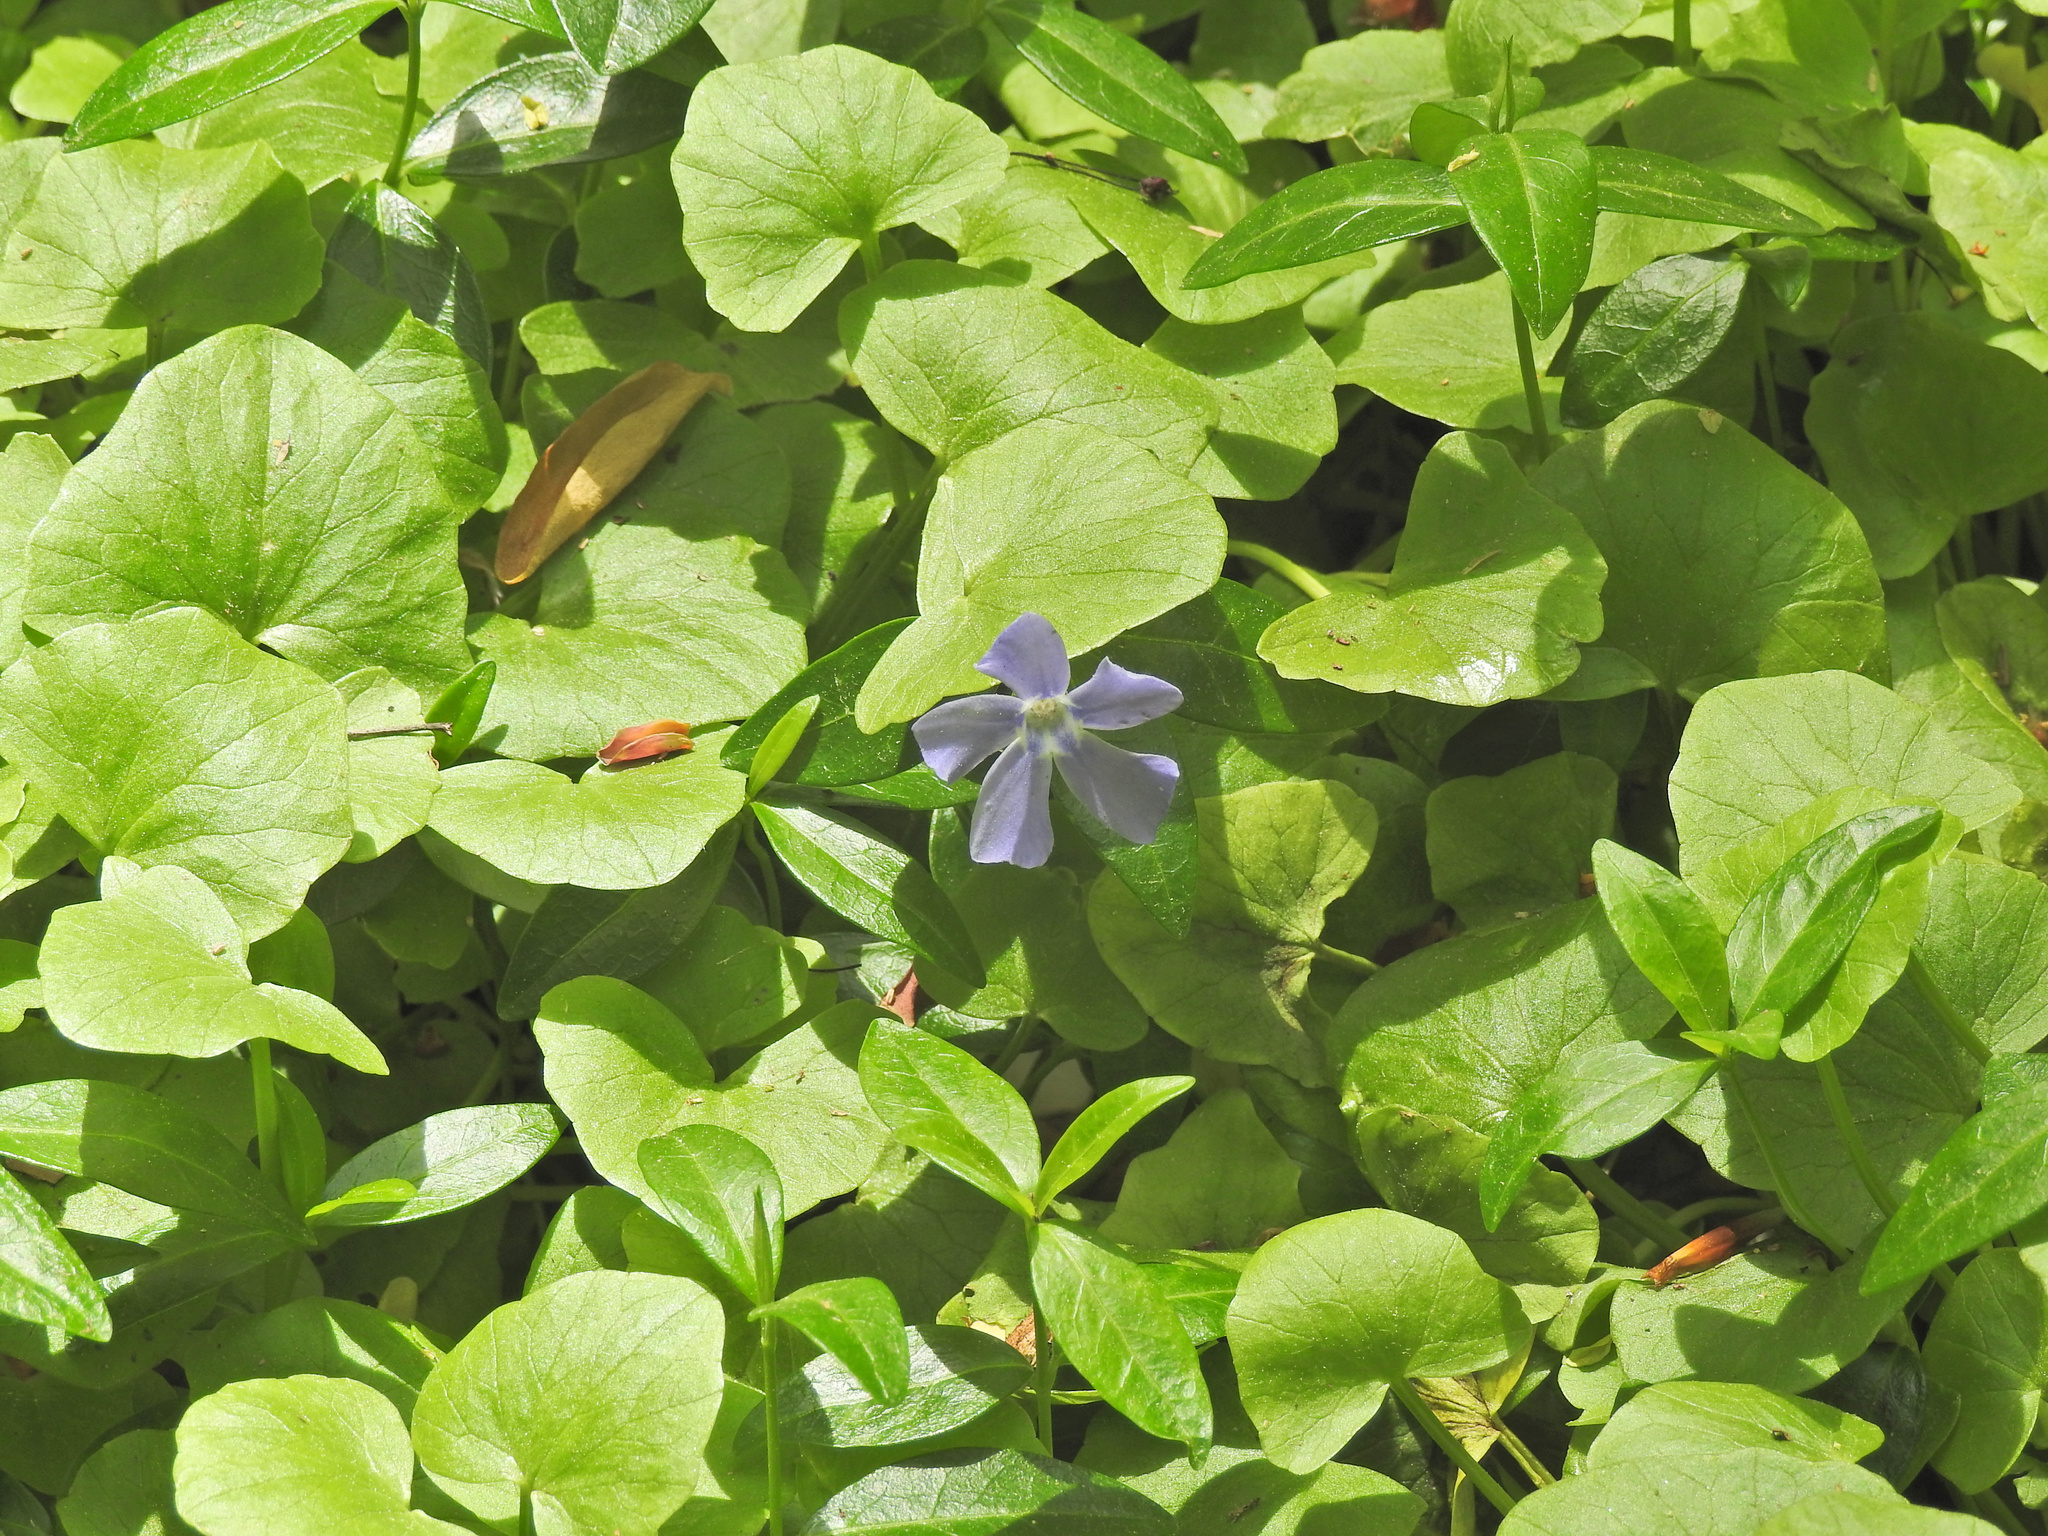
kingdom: Plantae
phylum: Tracheophyta
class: Magnoliopsida
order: Gentianales
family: Apocynaceae
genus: Vinca
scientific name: Vinca minor
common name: Lesser periwinkle
